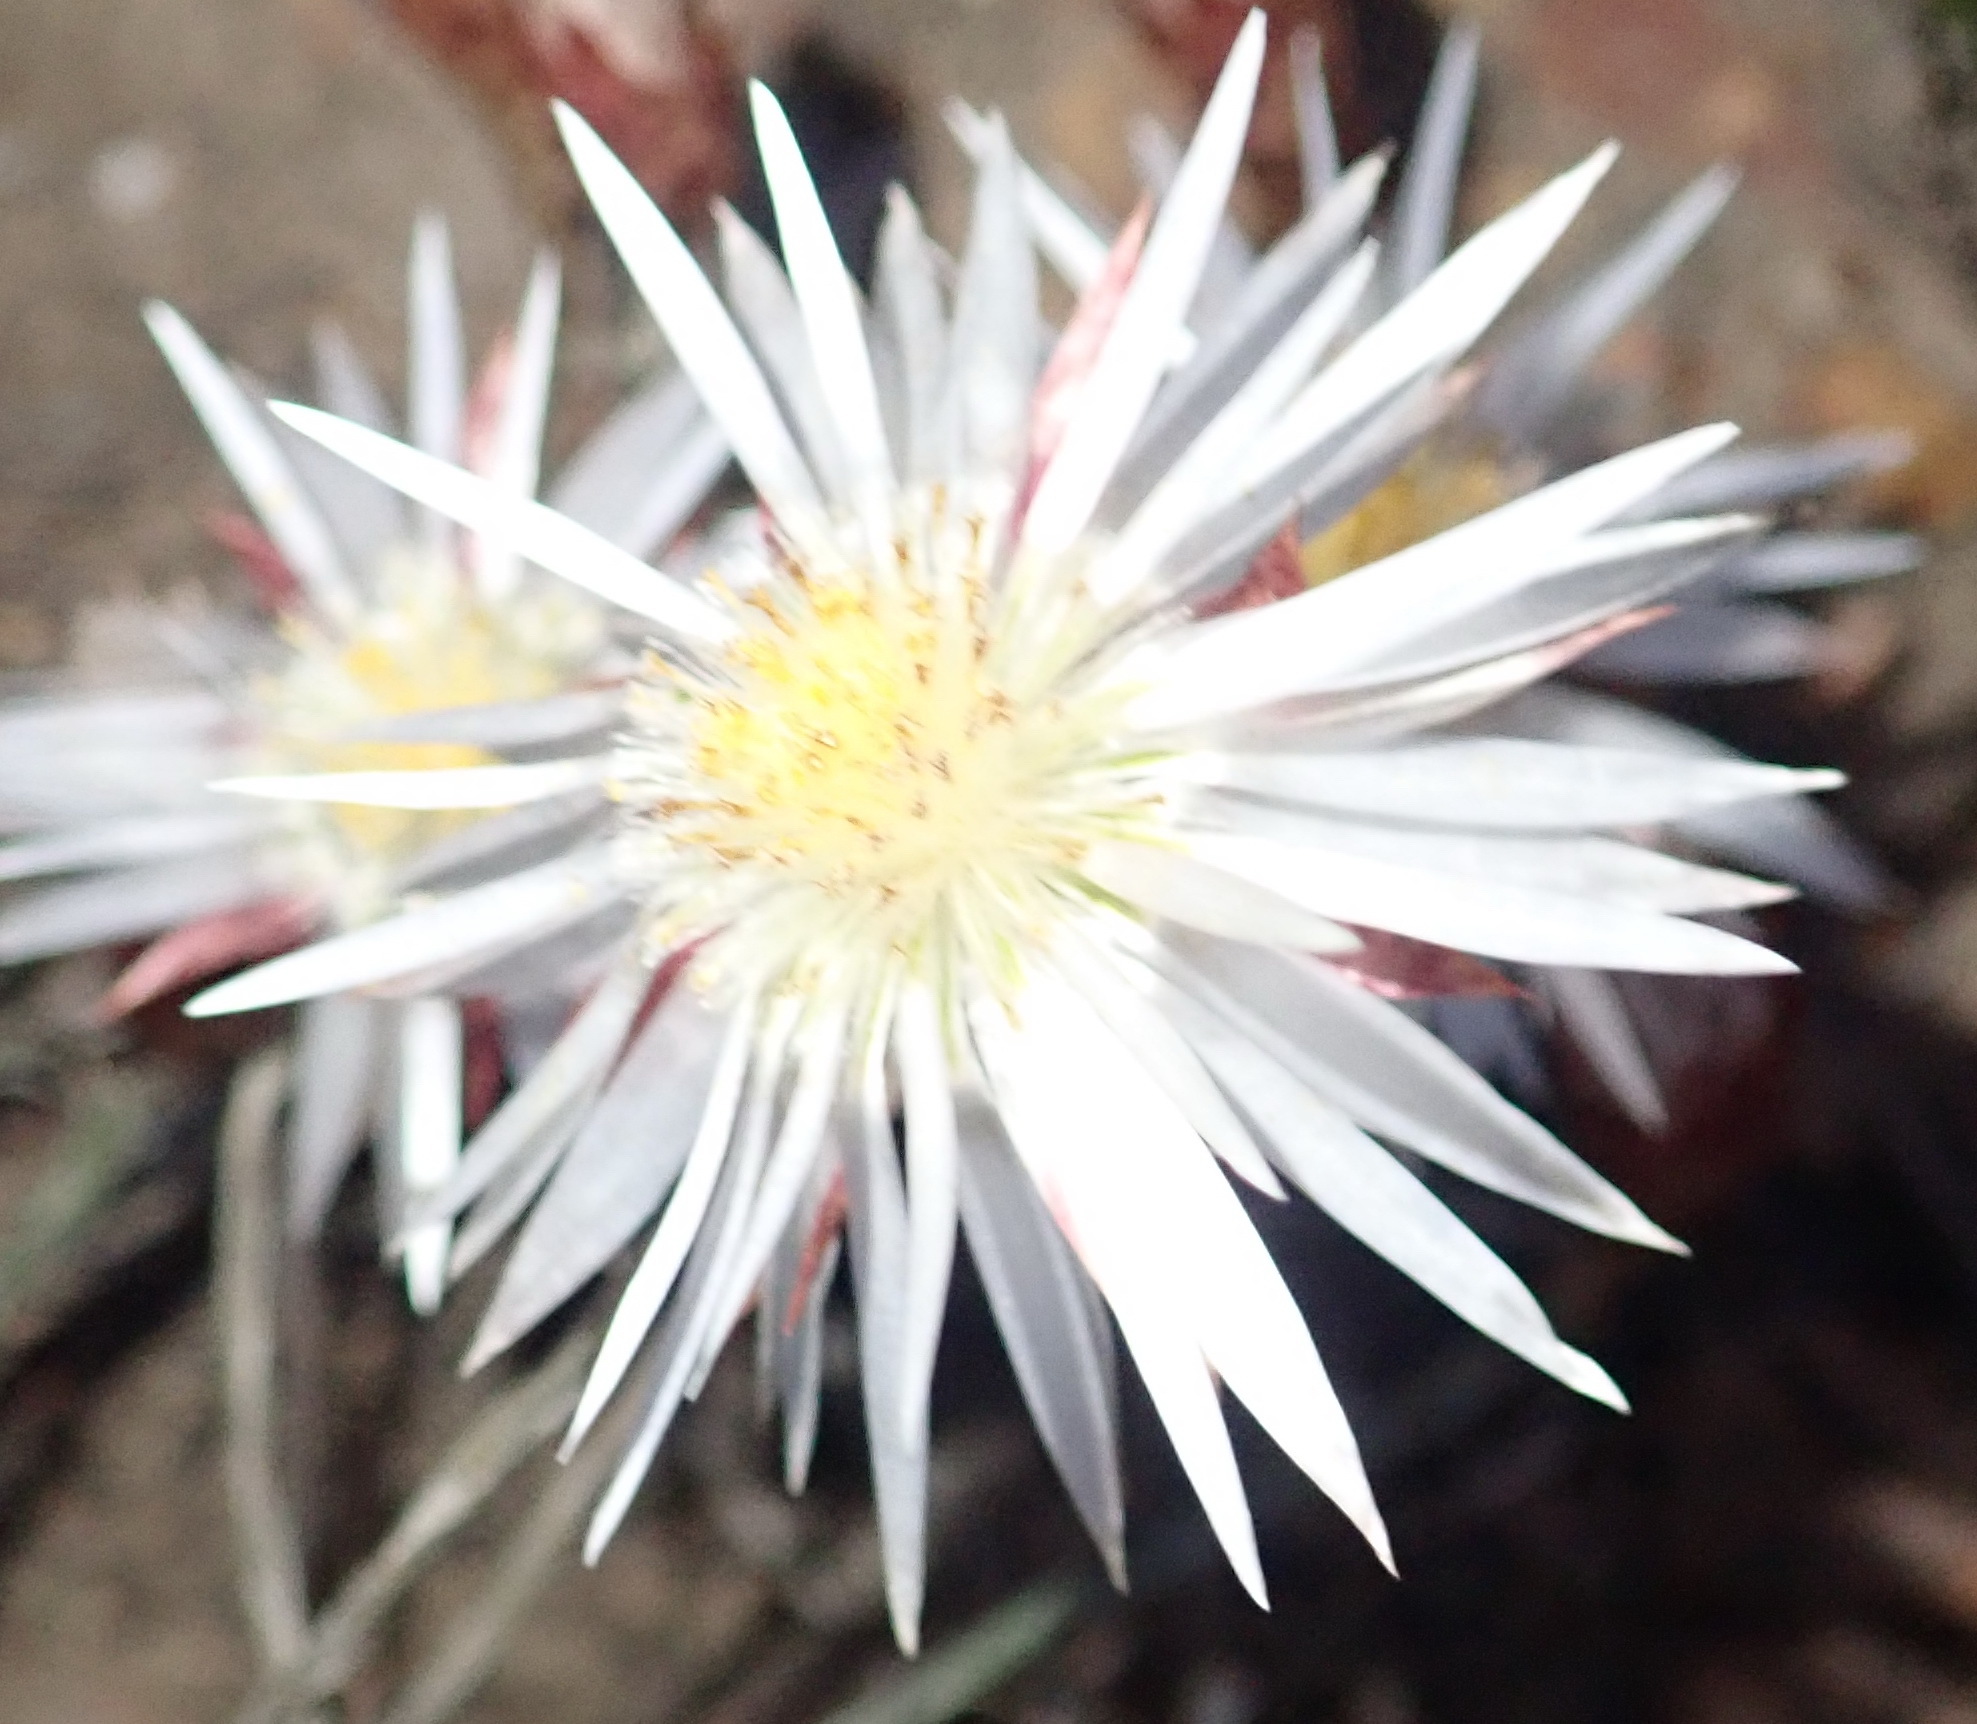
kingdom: Plantae
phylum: Tracheophyta
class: Magnoliopsida
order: Asterales
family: Asteraceae
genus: Syncarpha
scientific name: Syncarpha canescens
